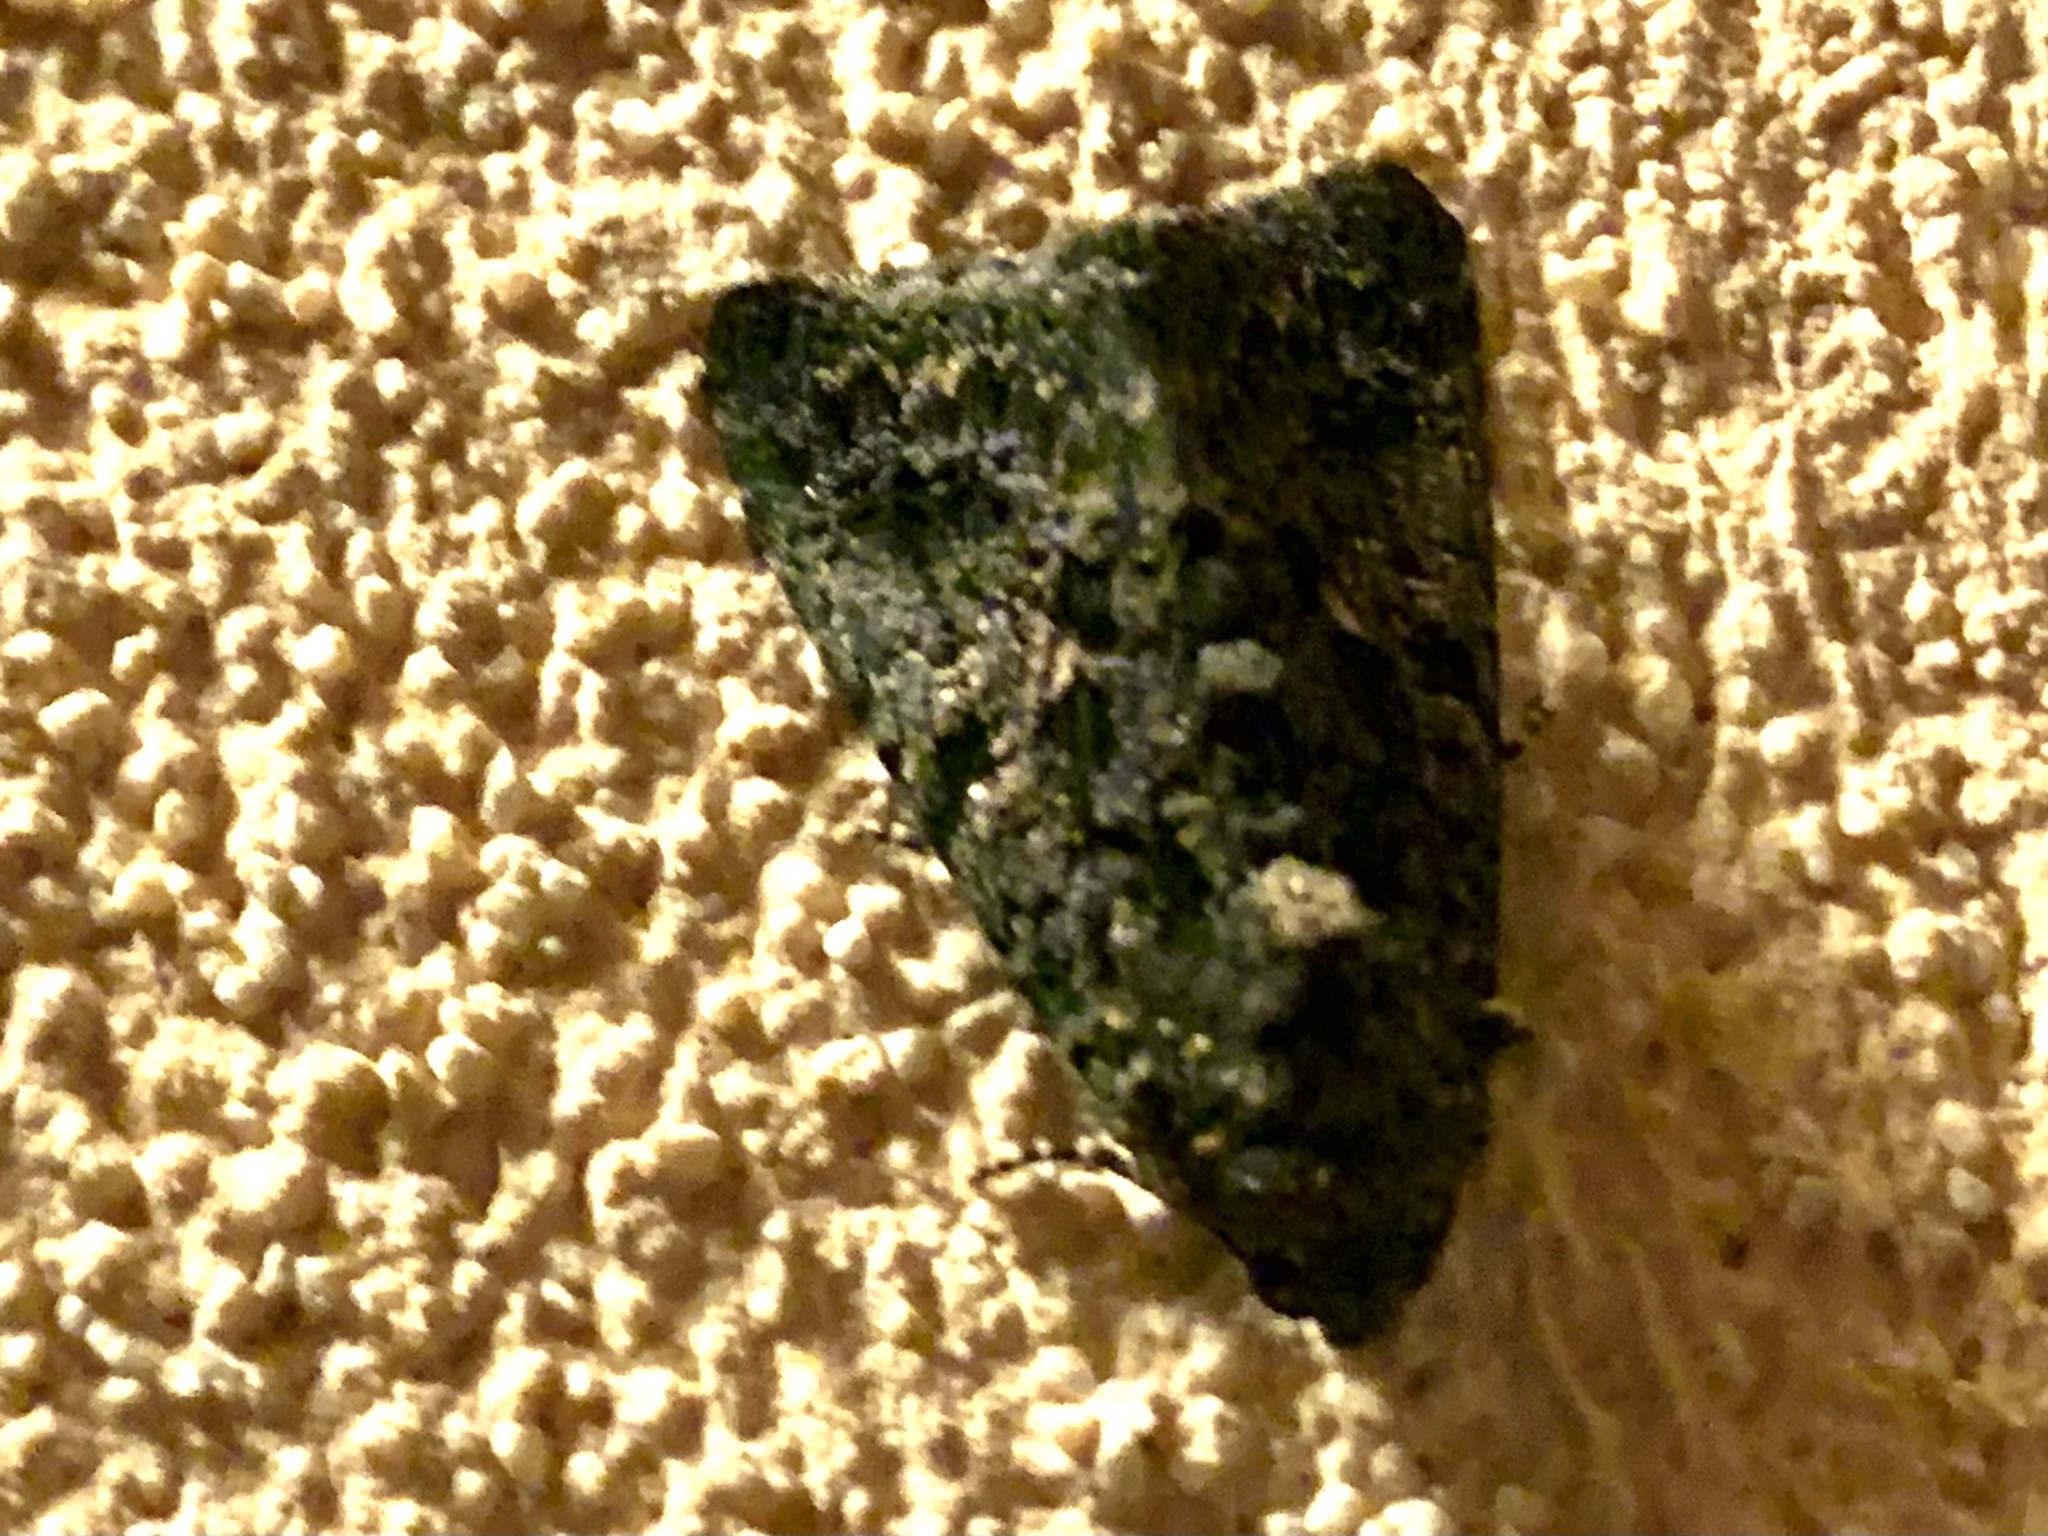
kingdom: Animalia
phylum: Arthropoda
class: Insecta
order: Lepidoptera
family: Noctuidae
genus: Aedia
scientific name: Aedia leucomelas
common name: Sorcerer
